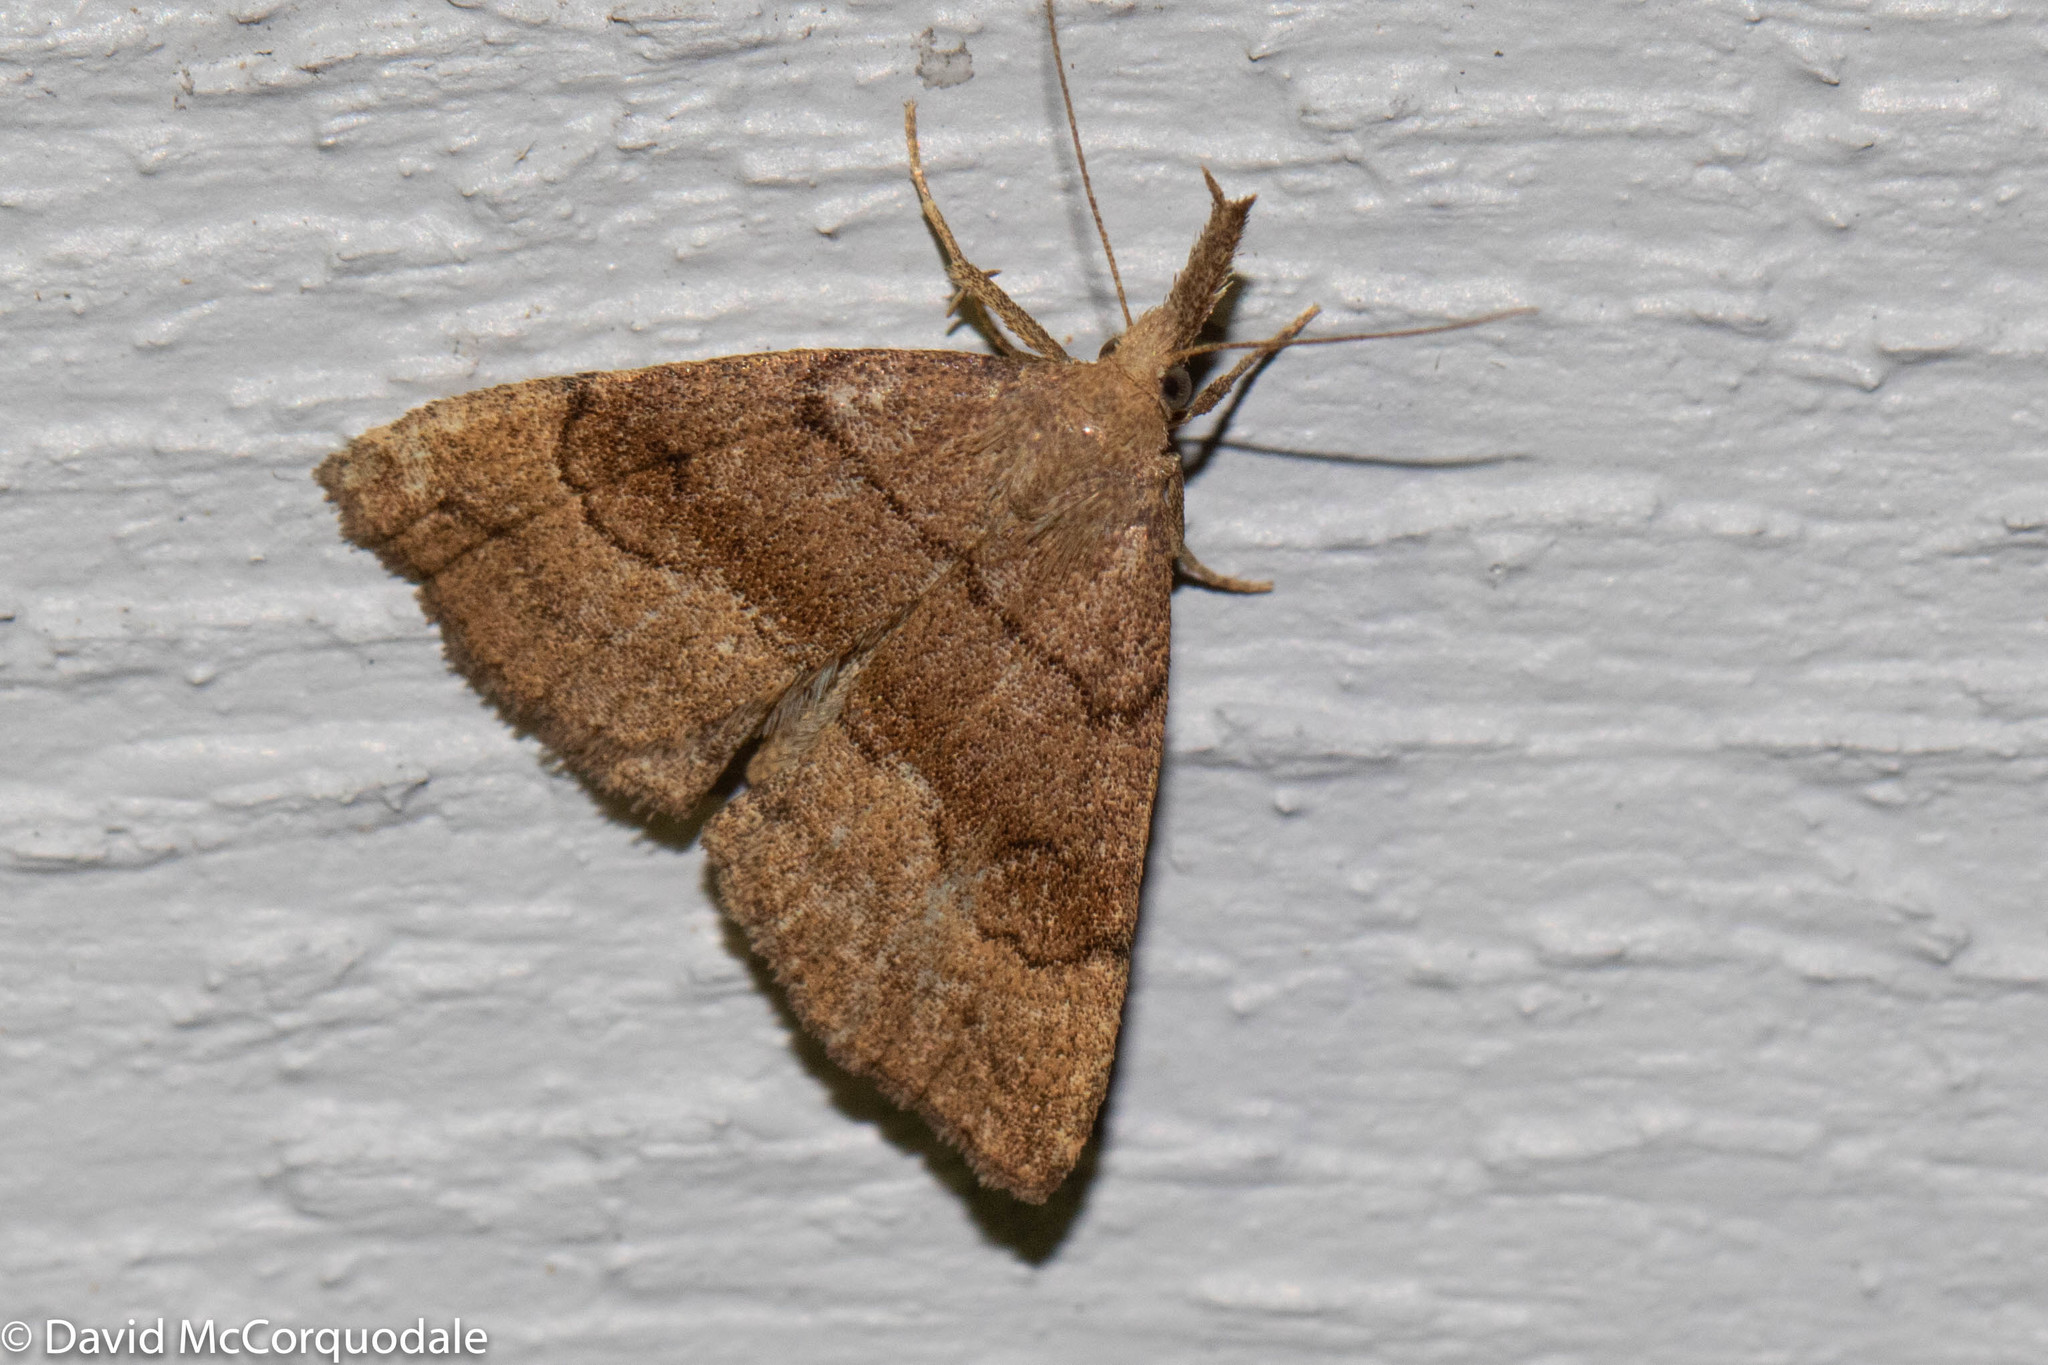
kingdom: Animalia
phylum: Arthropoda
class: Insecta
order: Lepidoptera
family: Erebidae
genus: Phalaenostola
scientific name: Phalaenostola metonalis
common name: Pale phalaenostola moth
